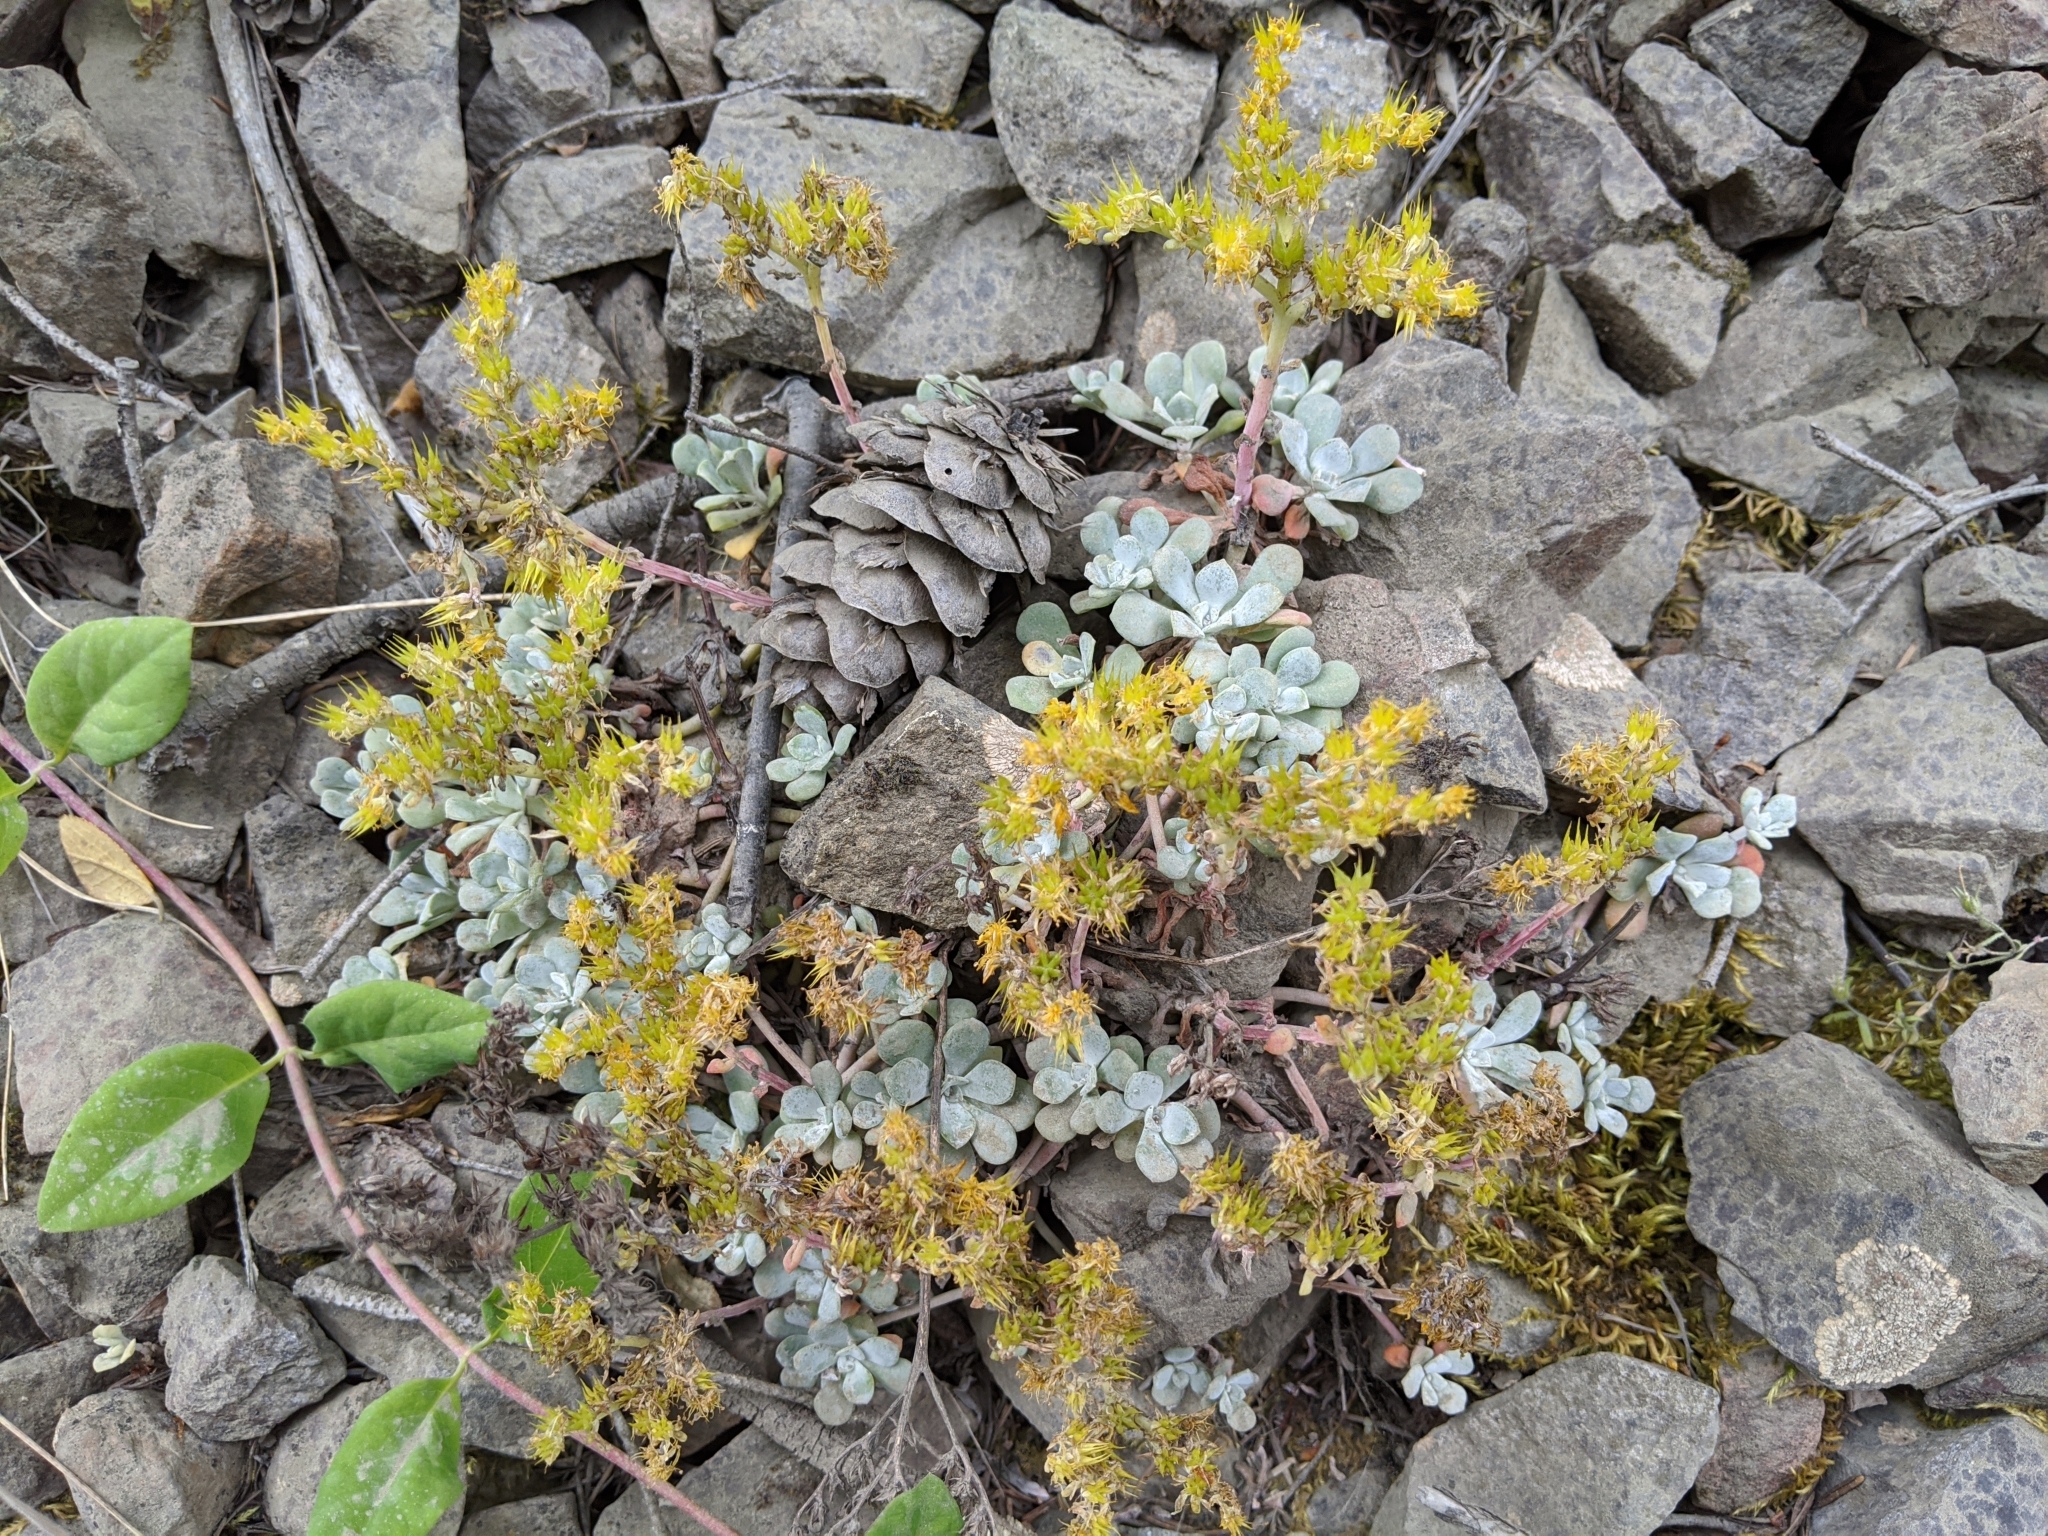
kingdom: Plantae
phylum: Tracheophyta
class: Magnoliopsida
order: Saxifragales
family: Crassulaceae
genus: Sedum
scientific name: Sedum spathulifolium
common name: Colorado stonecrop
